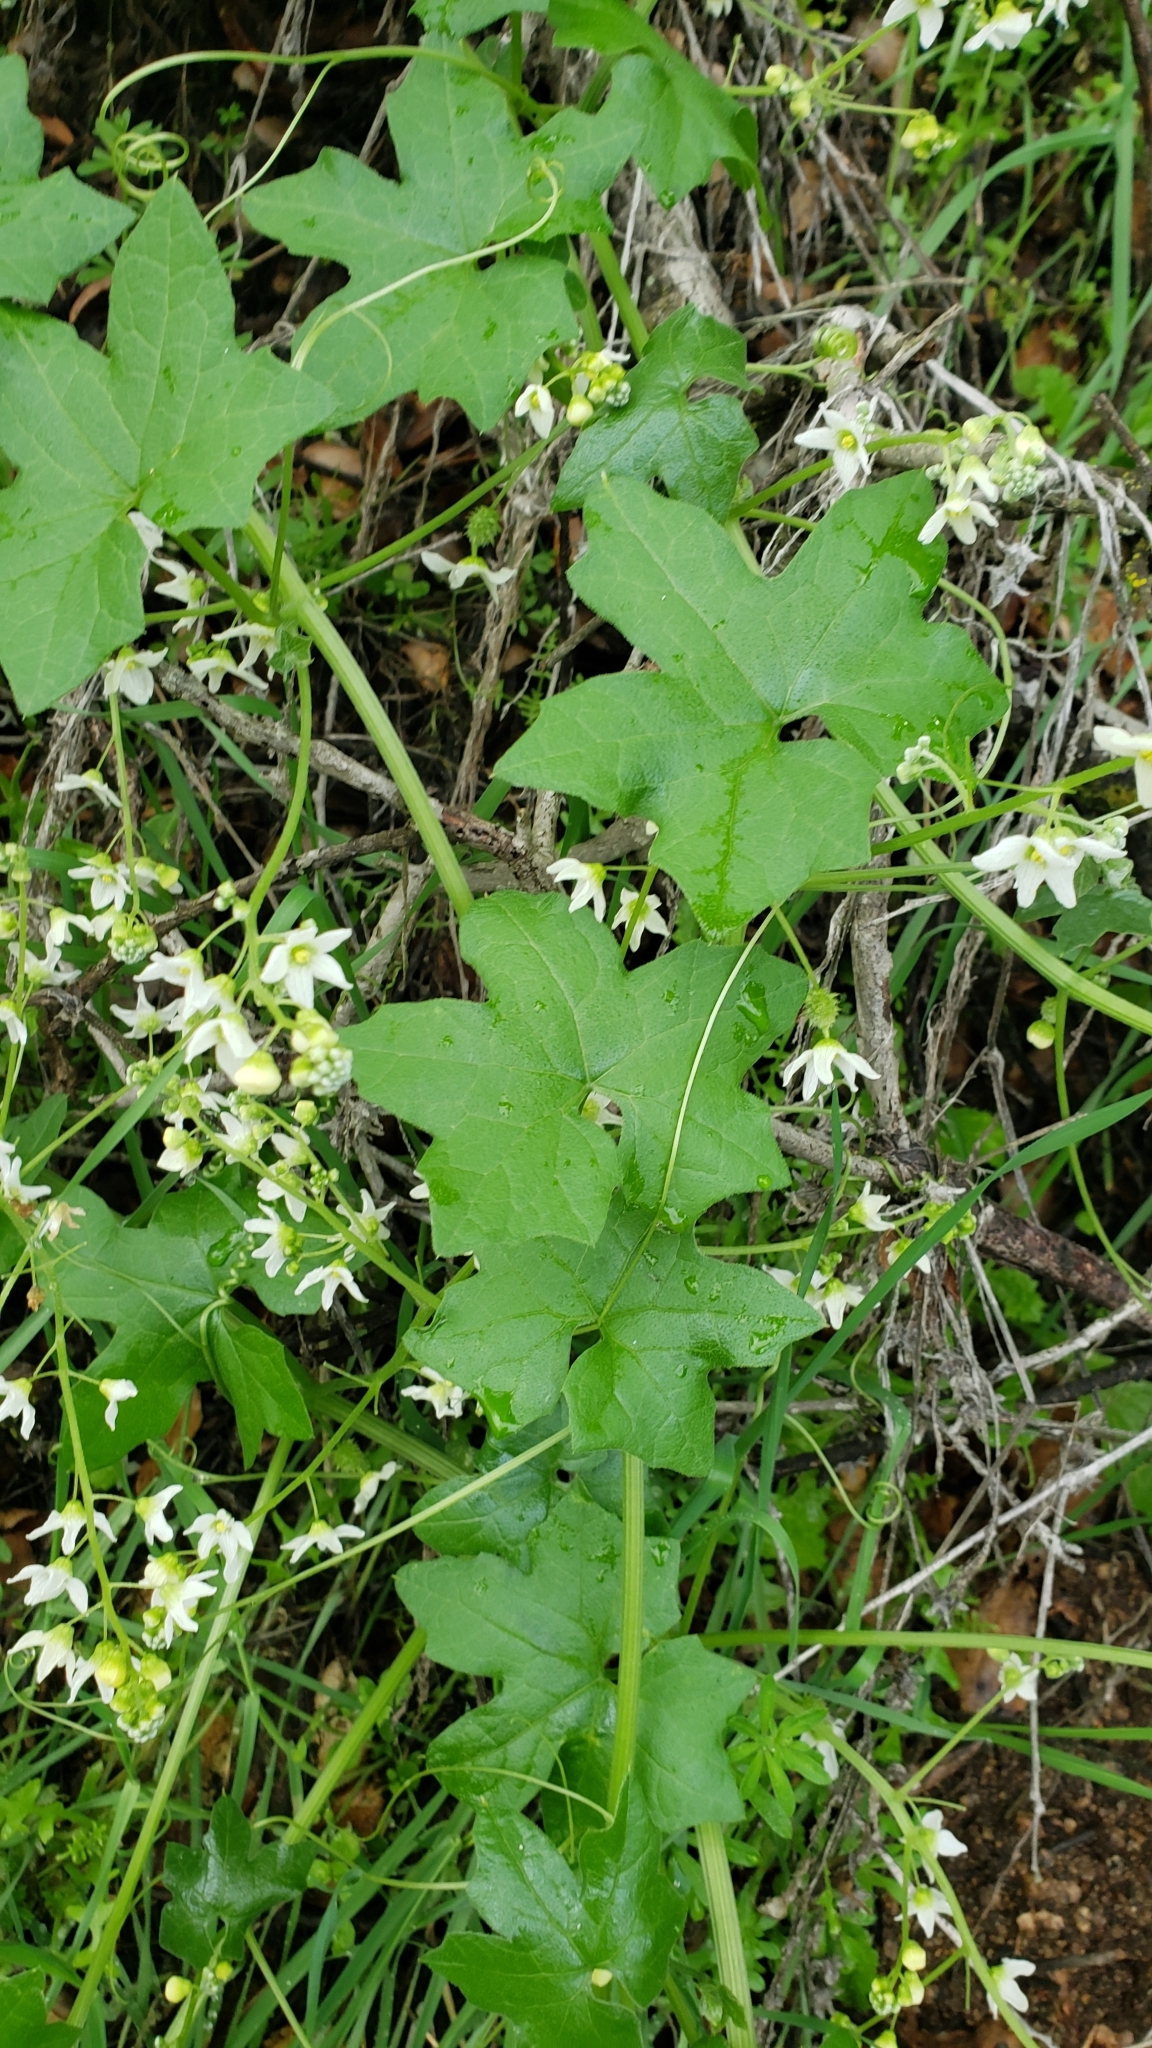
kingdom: Plantae
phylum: Tracheophyta
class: Magnoliopsida
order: Cucurbitales
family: Cucurbitaceae
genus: Marah
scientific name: Marah macrocarpa
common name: Cucamonga manroot
